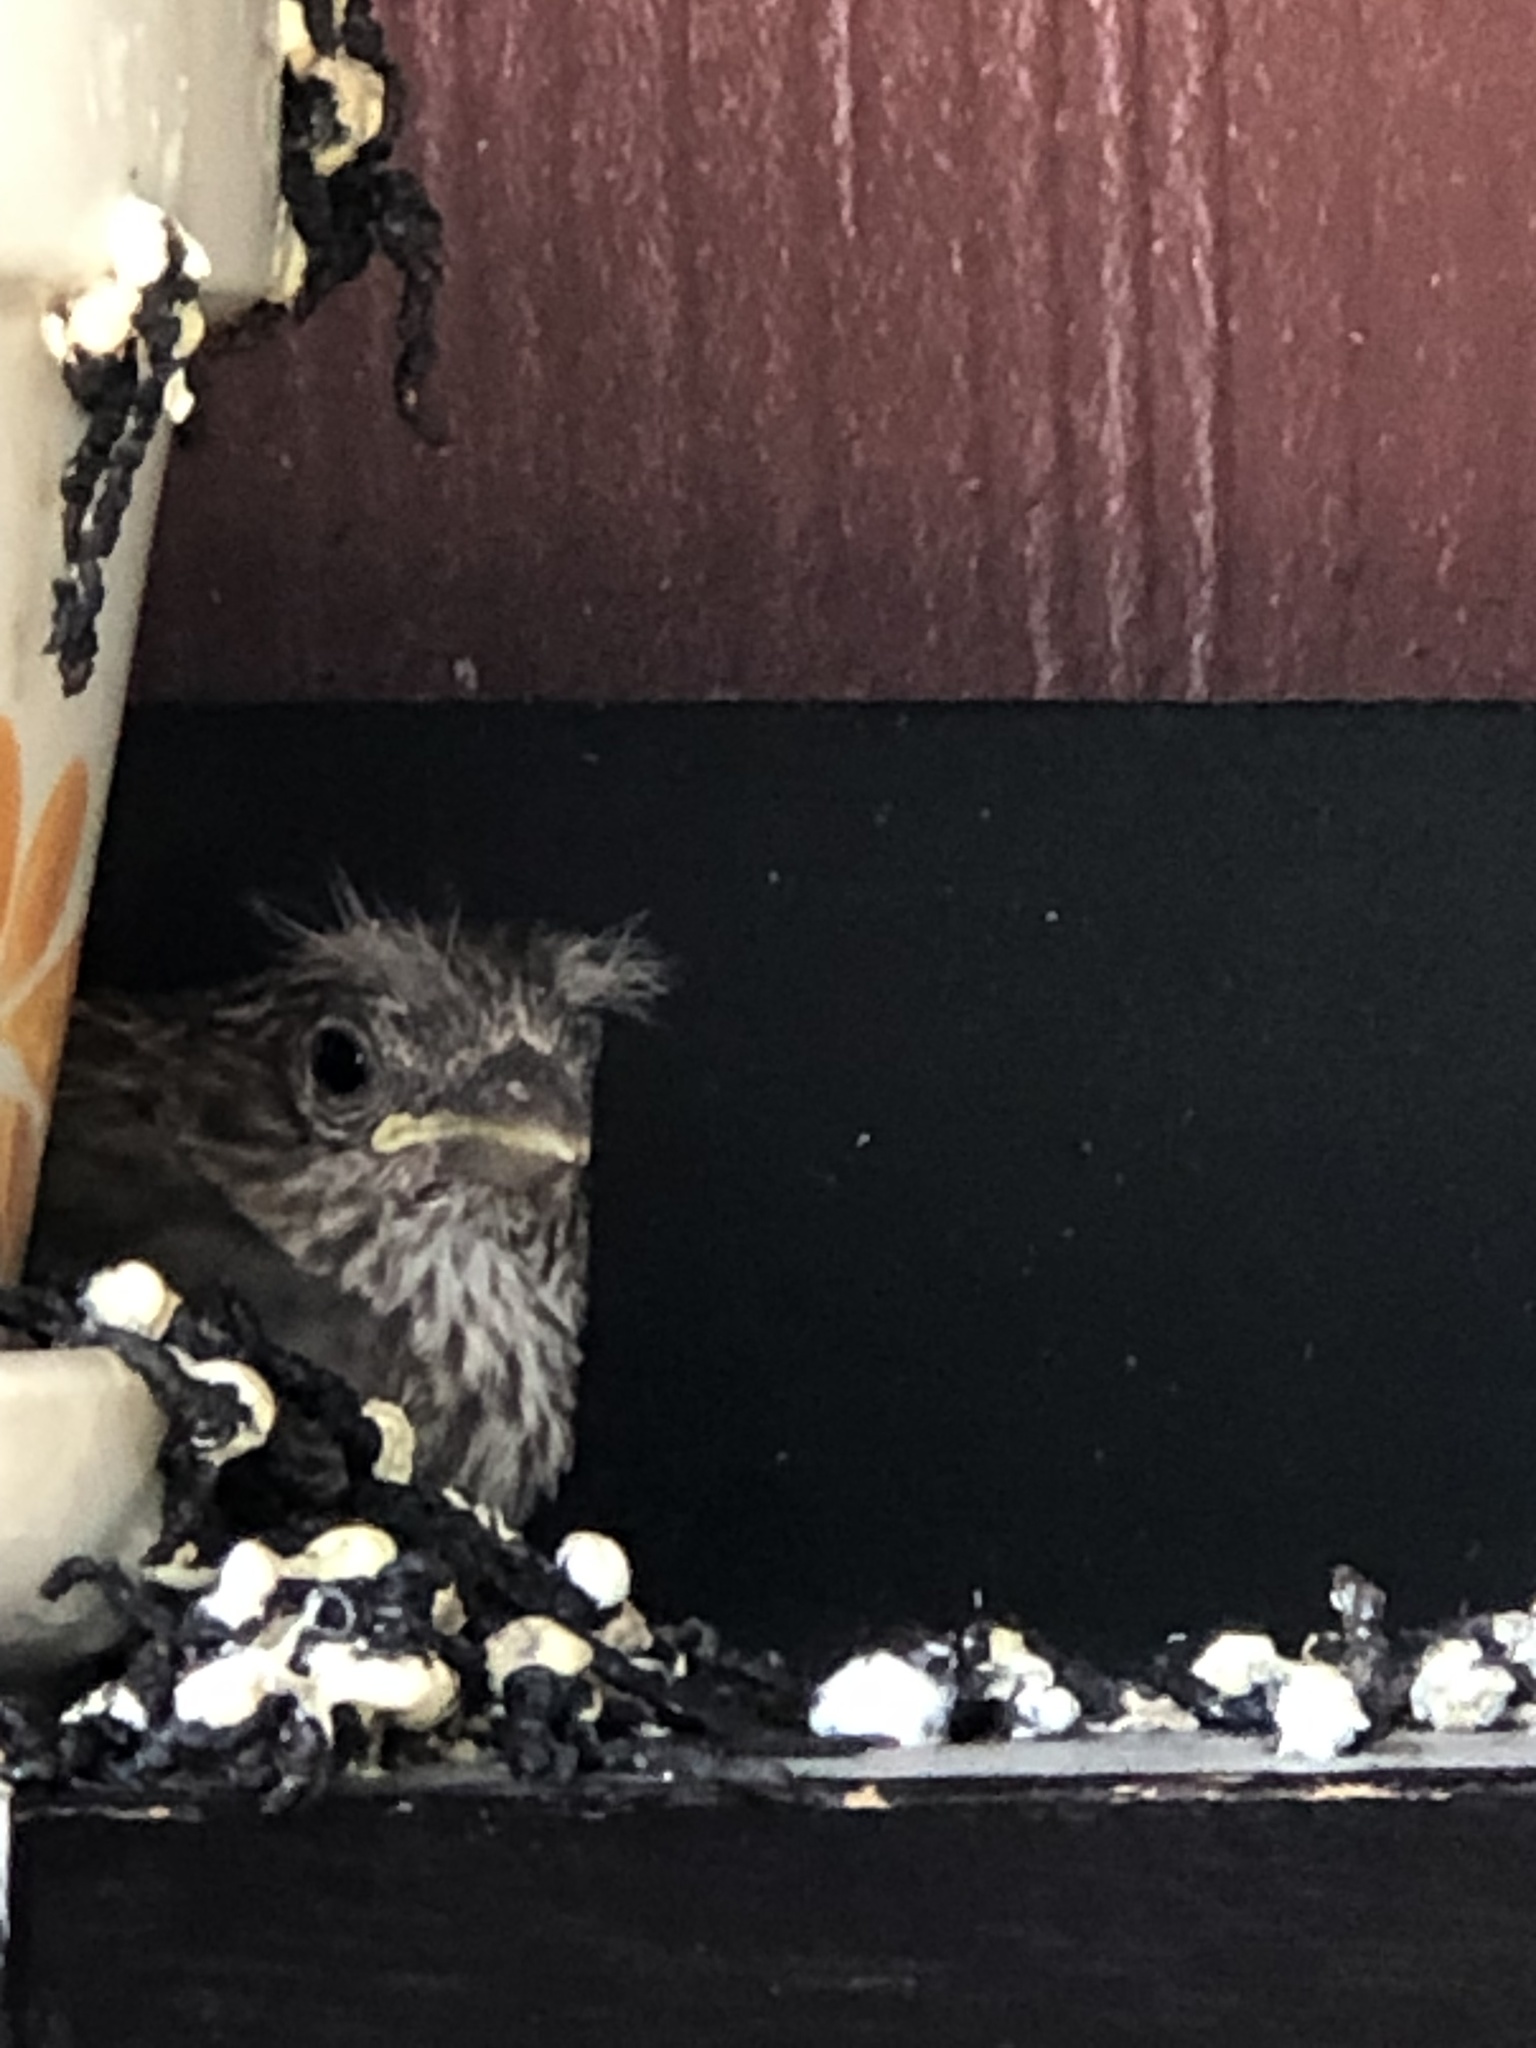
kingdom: Animalia
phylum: Chordata
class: Aves
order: Passeriformes
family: Fringillidae
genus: Haemorhous
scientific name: Haemorhous mexicanus
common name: House finch
